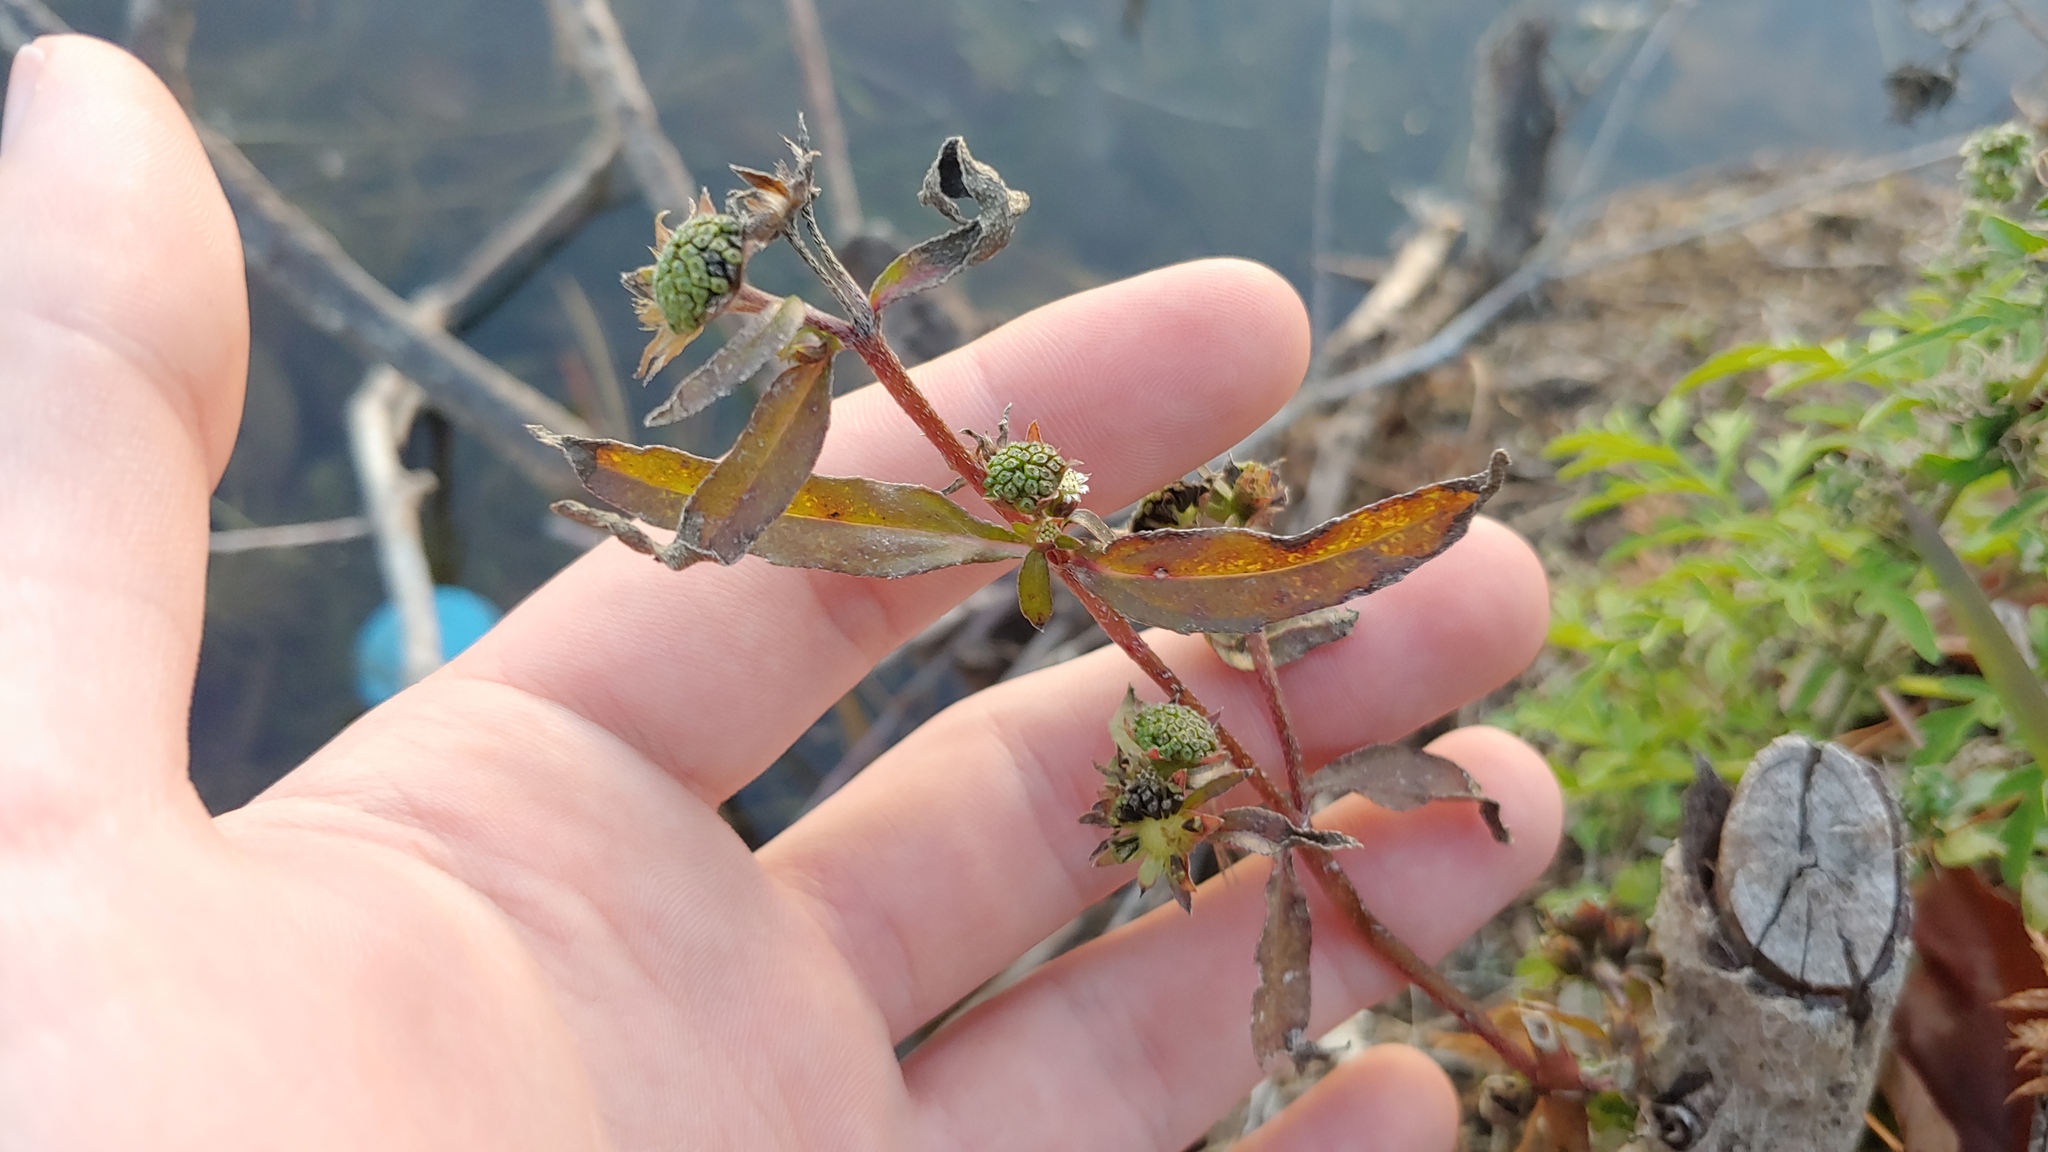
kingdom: Plantae
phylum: Tracheophyta
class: Magnoliopsida
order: Asterales
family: Asteraceae
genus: Eclipta
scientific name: Eclipta prostrata
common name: False daisy
